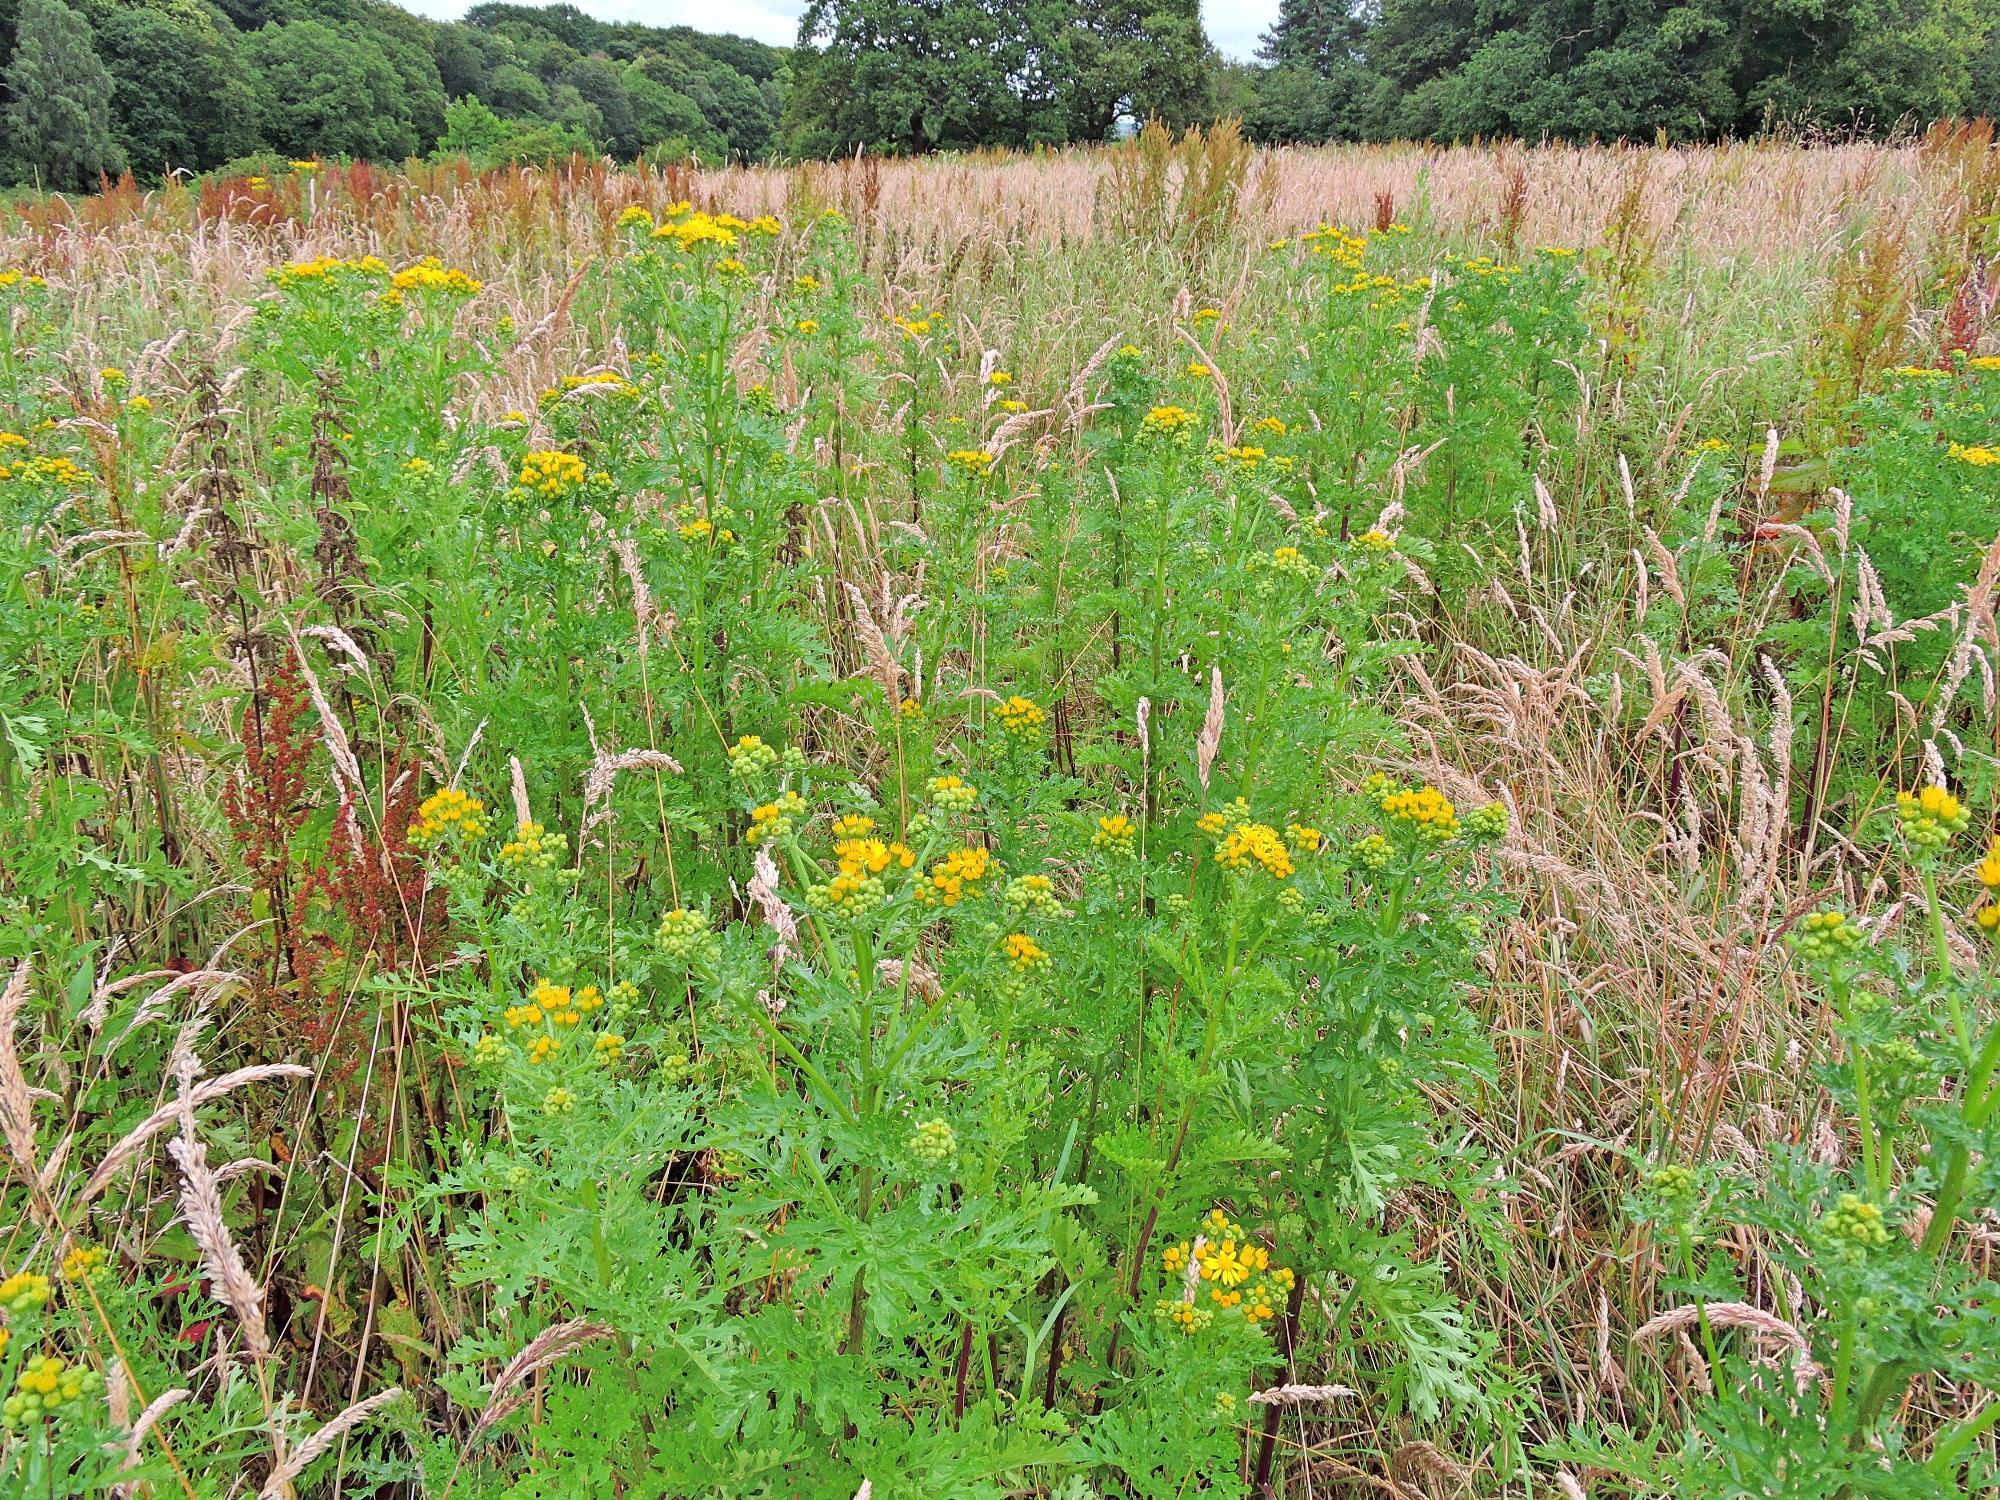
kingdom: Plantae
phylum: Tracheophyta
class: Magnoliopsida
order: Asterales
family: Asteraceae
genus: Jacobaea
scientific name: Jacobaea vulgaris
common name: Stinking willie
